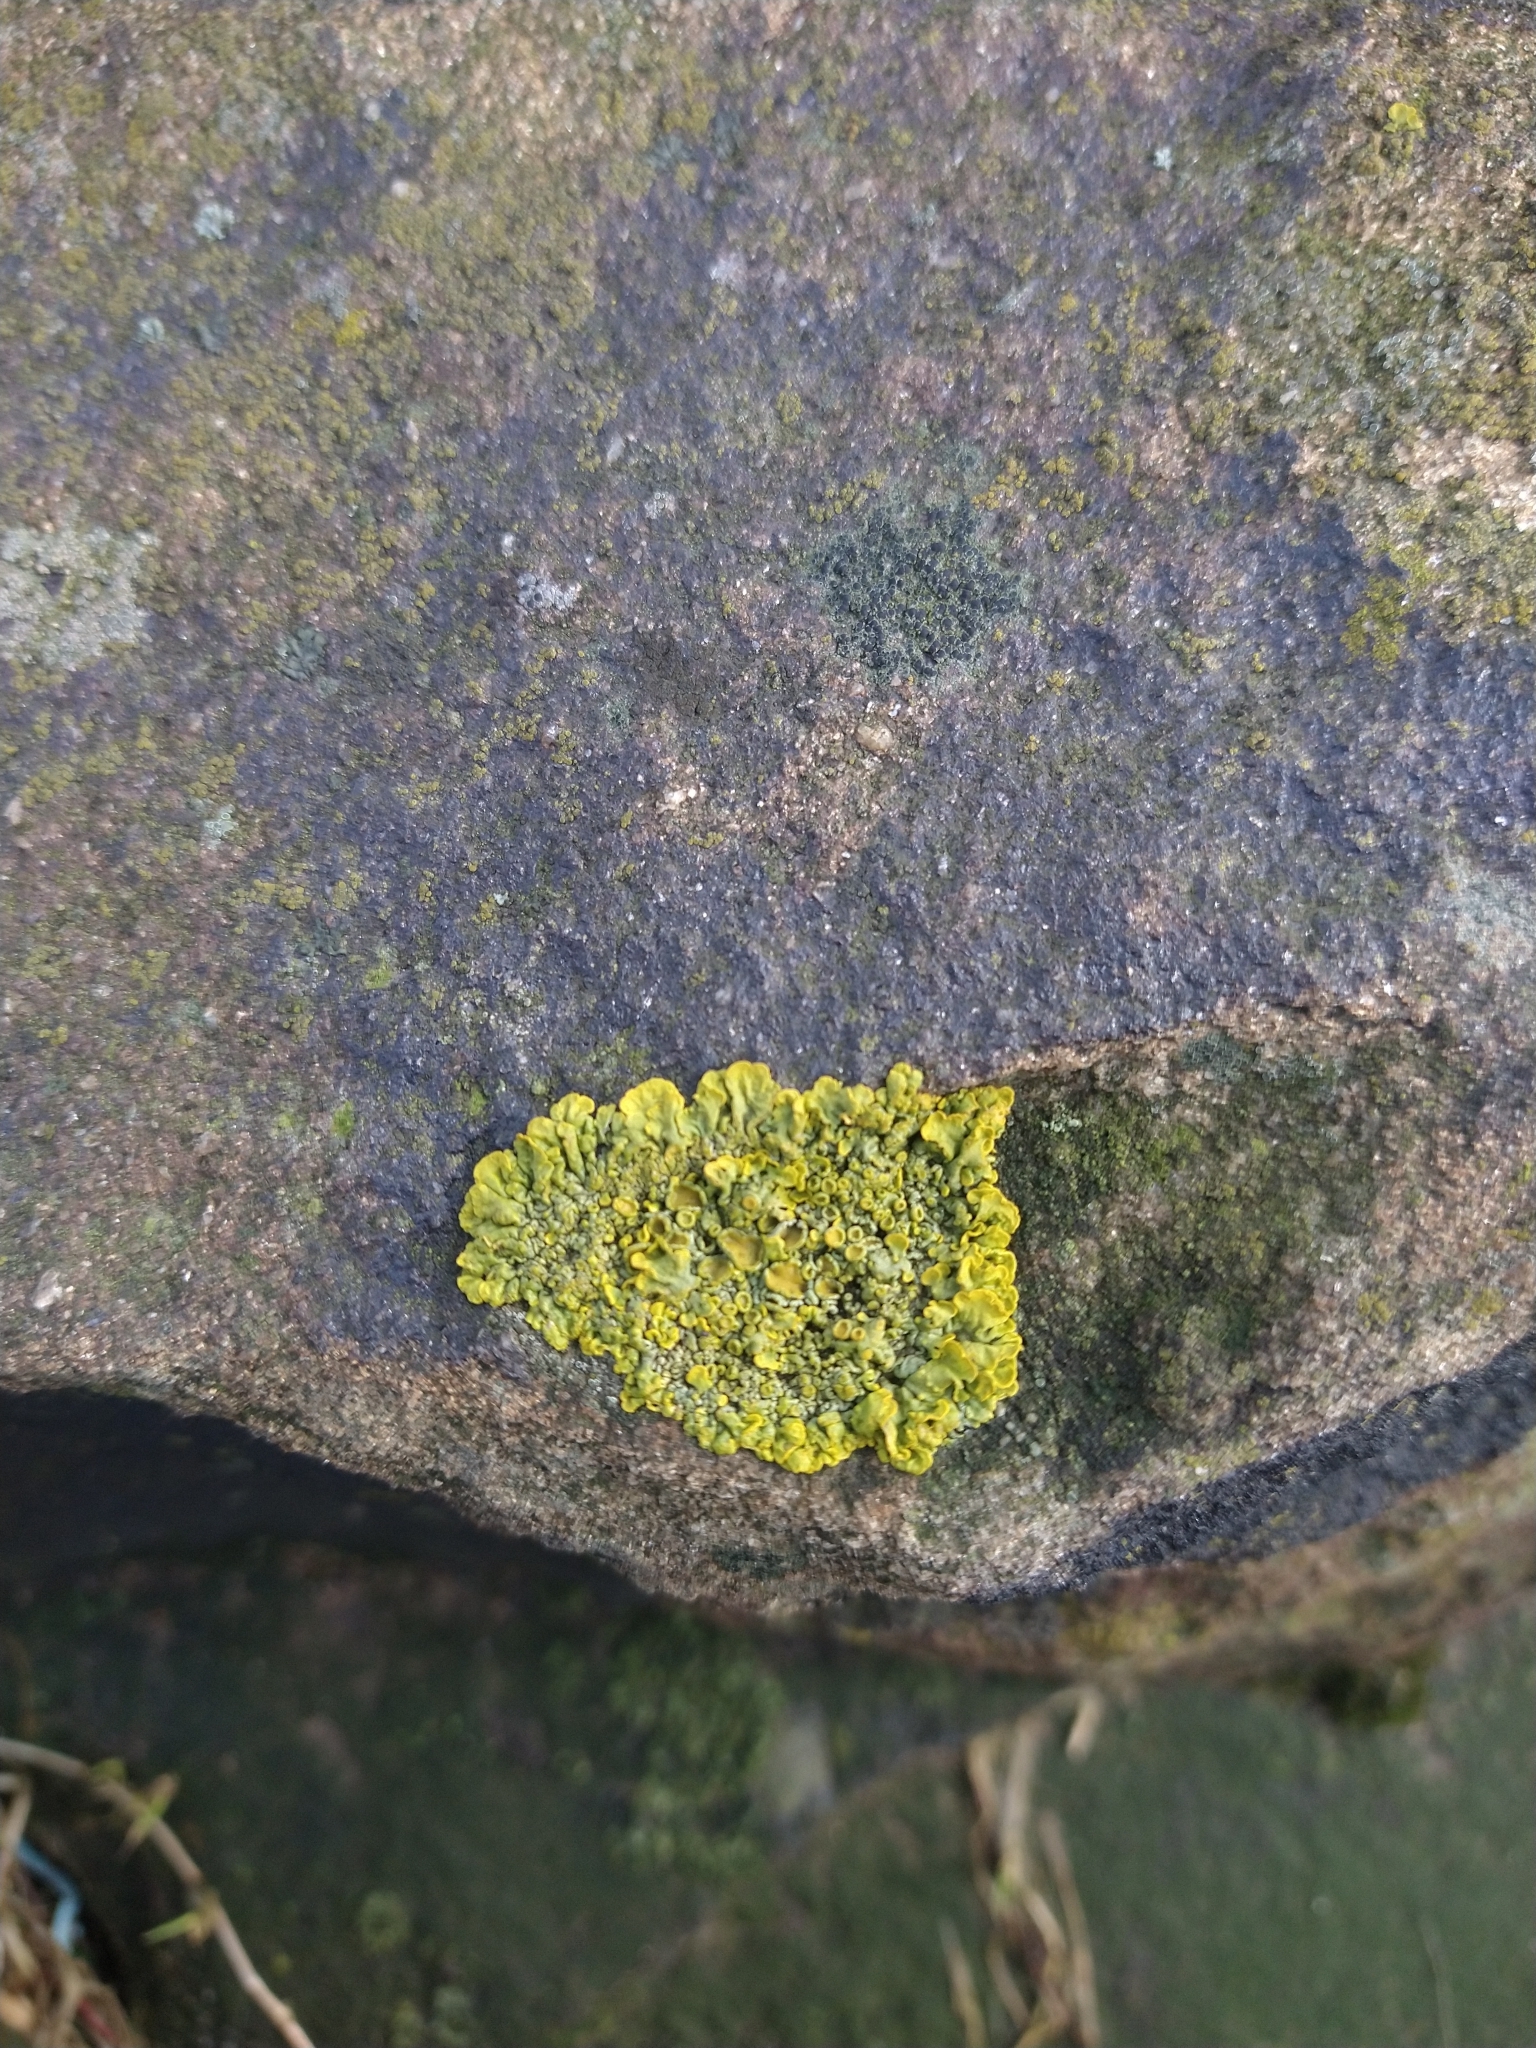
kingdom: Fungi
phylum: Ascomycota
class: Lecanoromycetes
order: Teloschistales
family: Teloschistaceae
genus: Xanthoria
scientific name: Xanthoria parietina
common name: Common orange lichen
